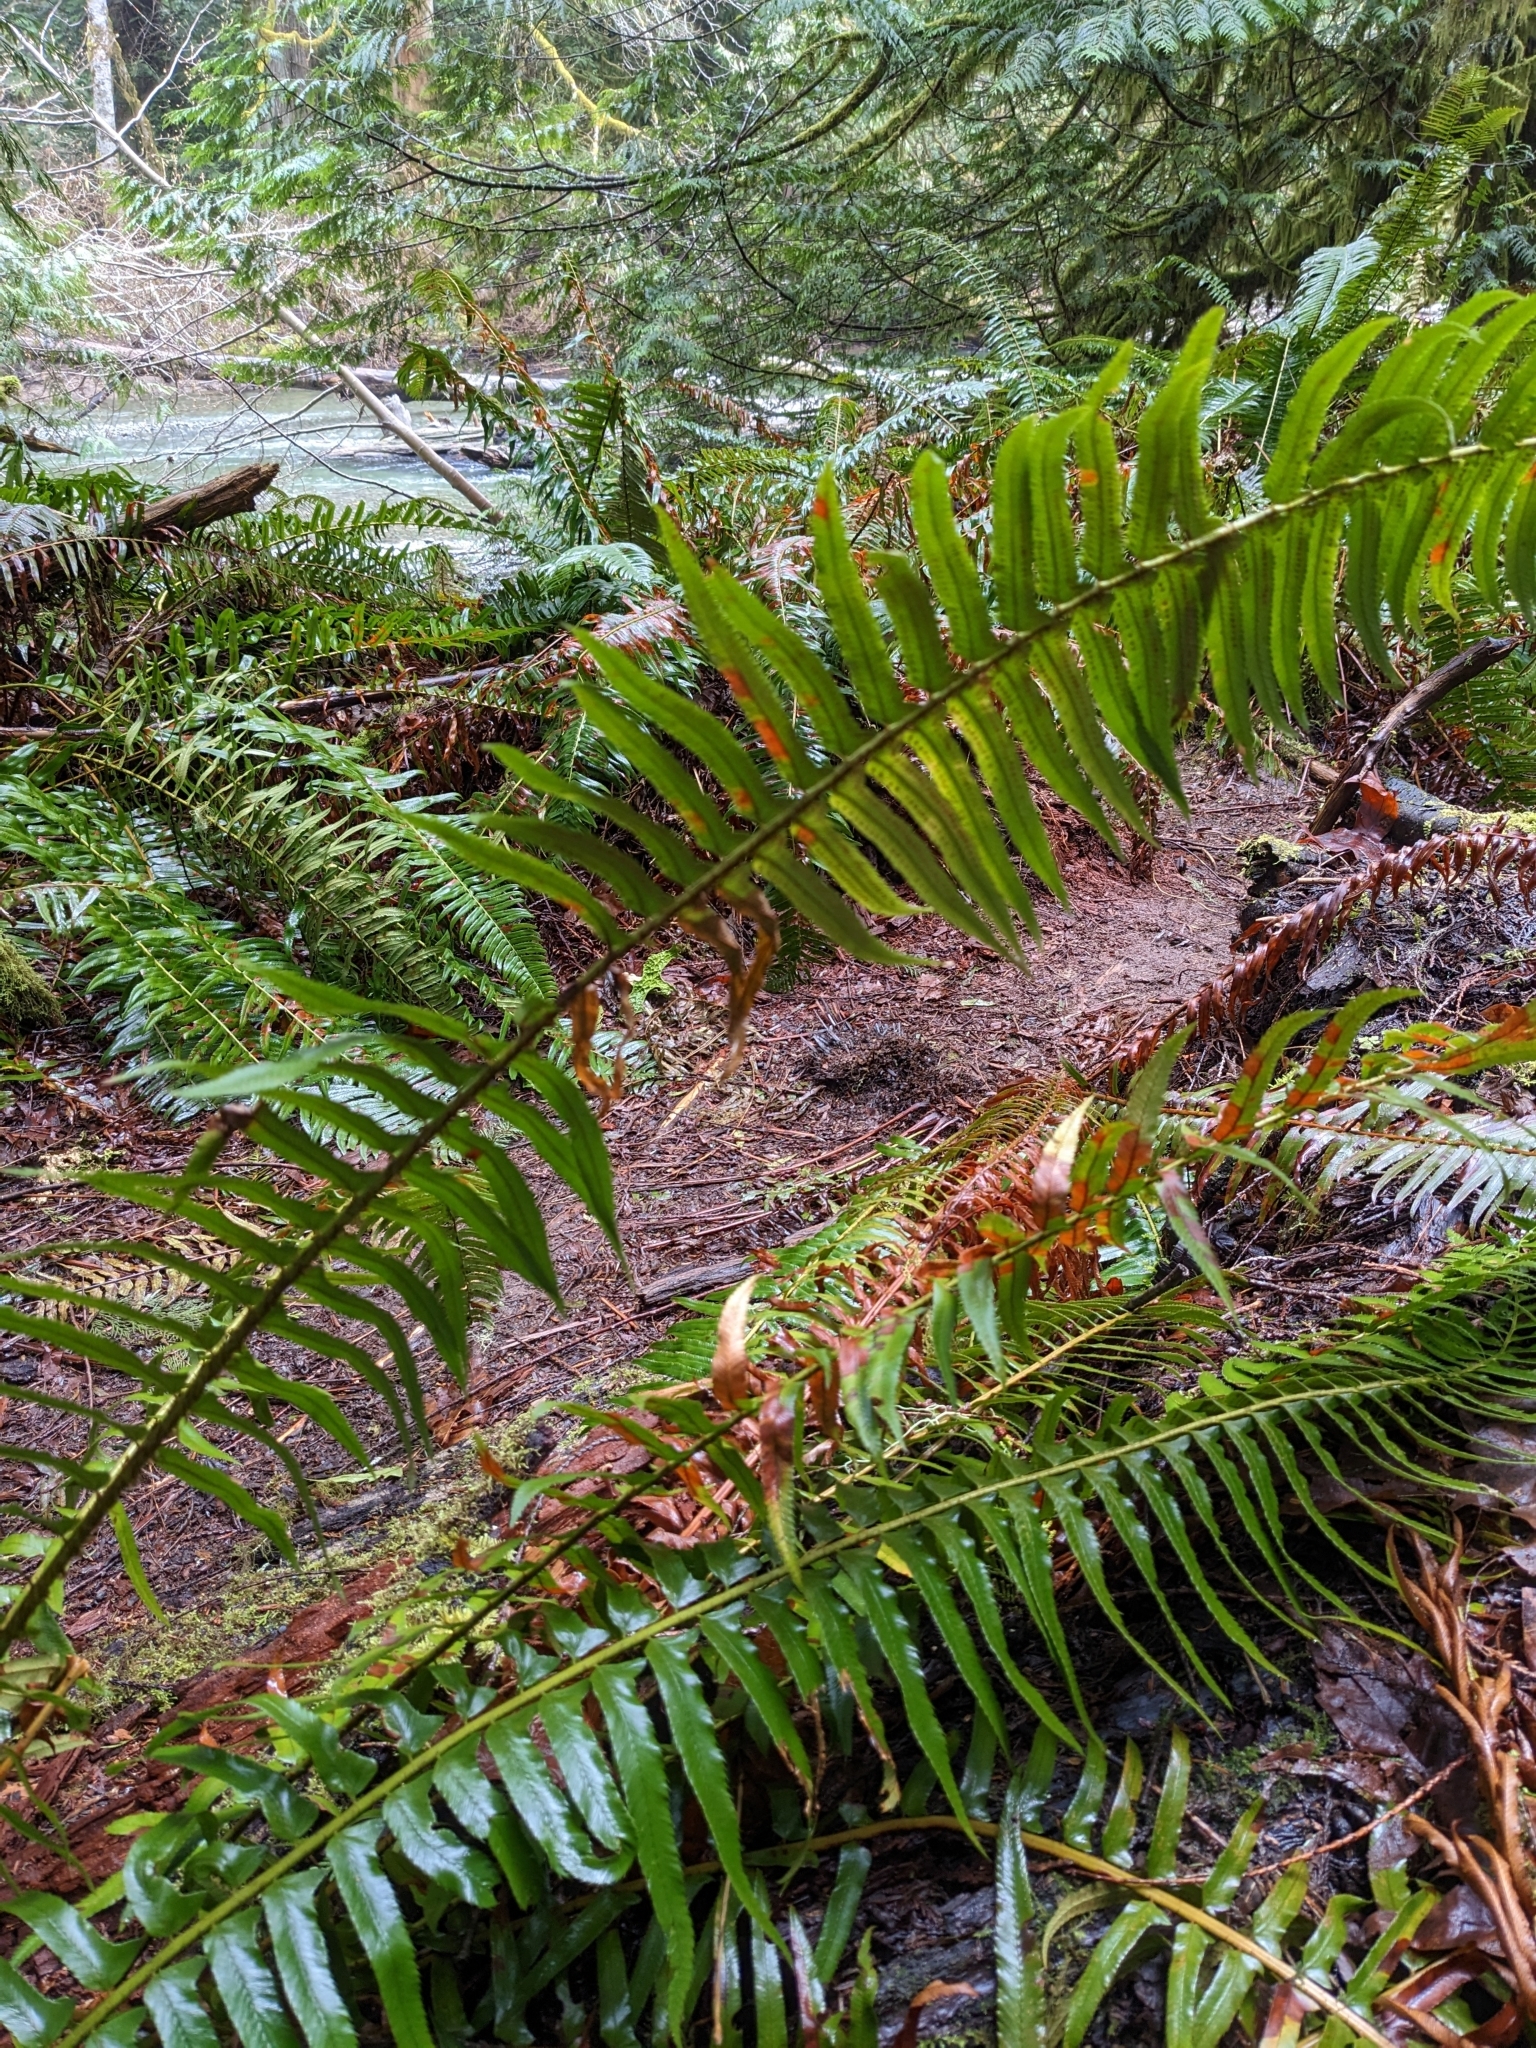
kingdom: Plantae
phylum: Tracheophyta
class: Polypodiopsida
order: Polypodiales
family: Dryopteridaceae
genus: Polystichum
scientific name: Polystichum munitum
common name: Western sword-fern
